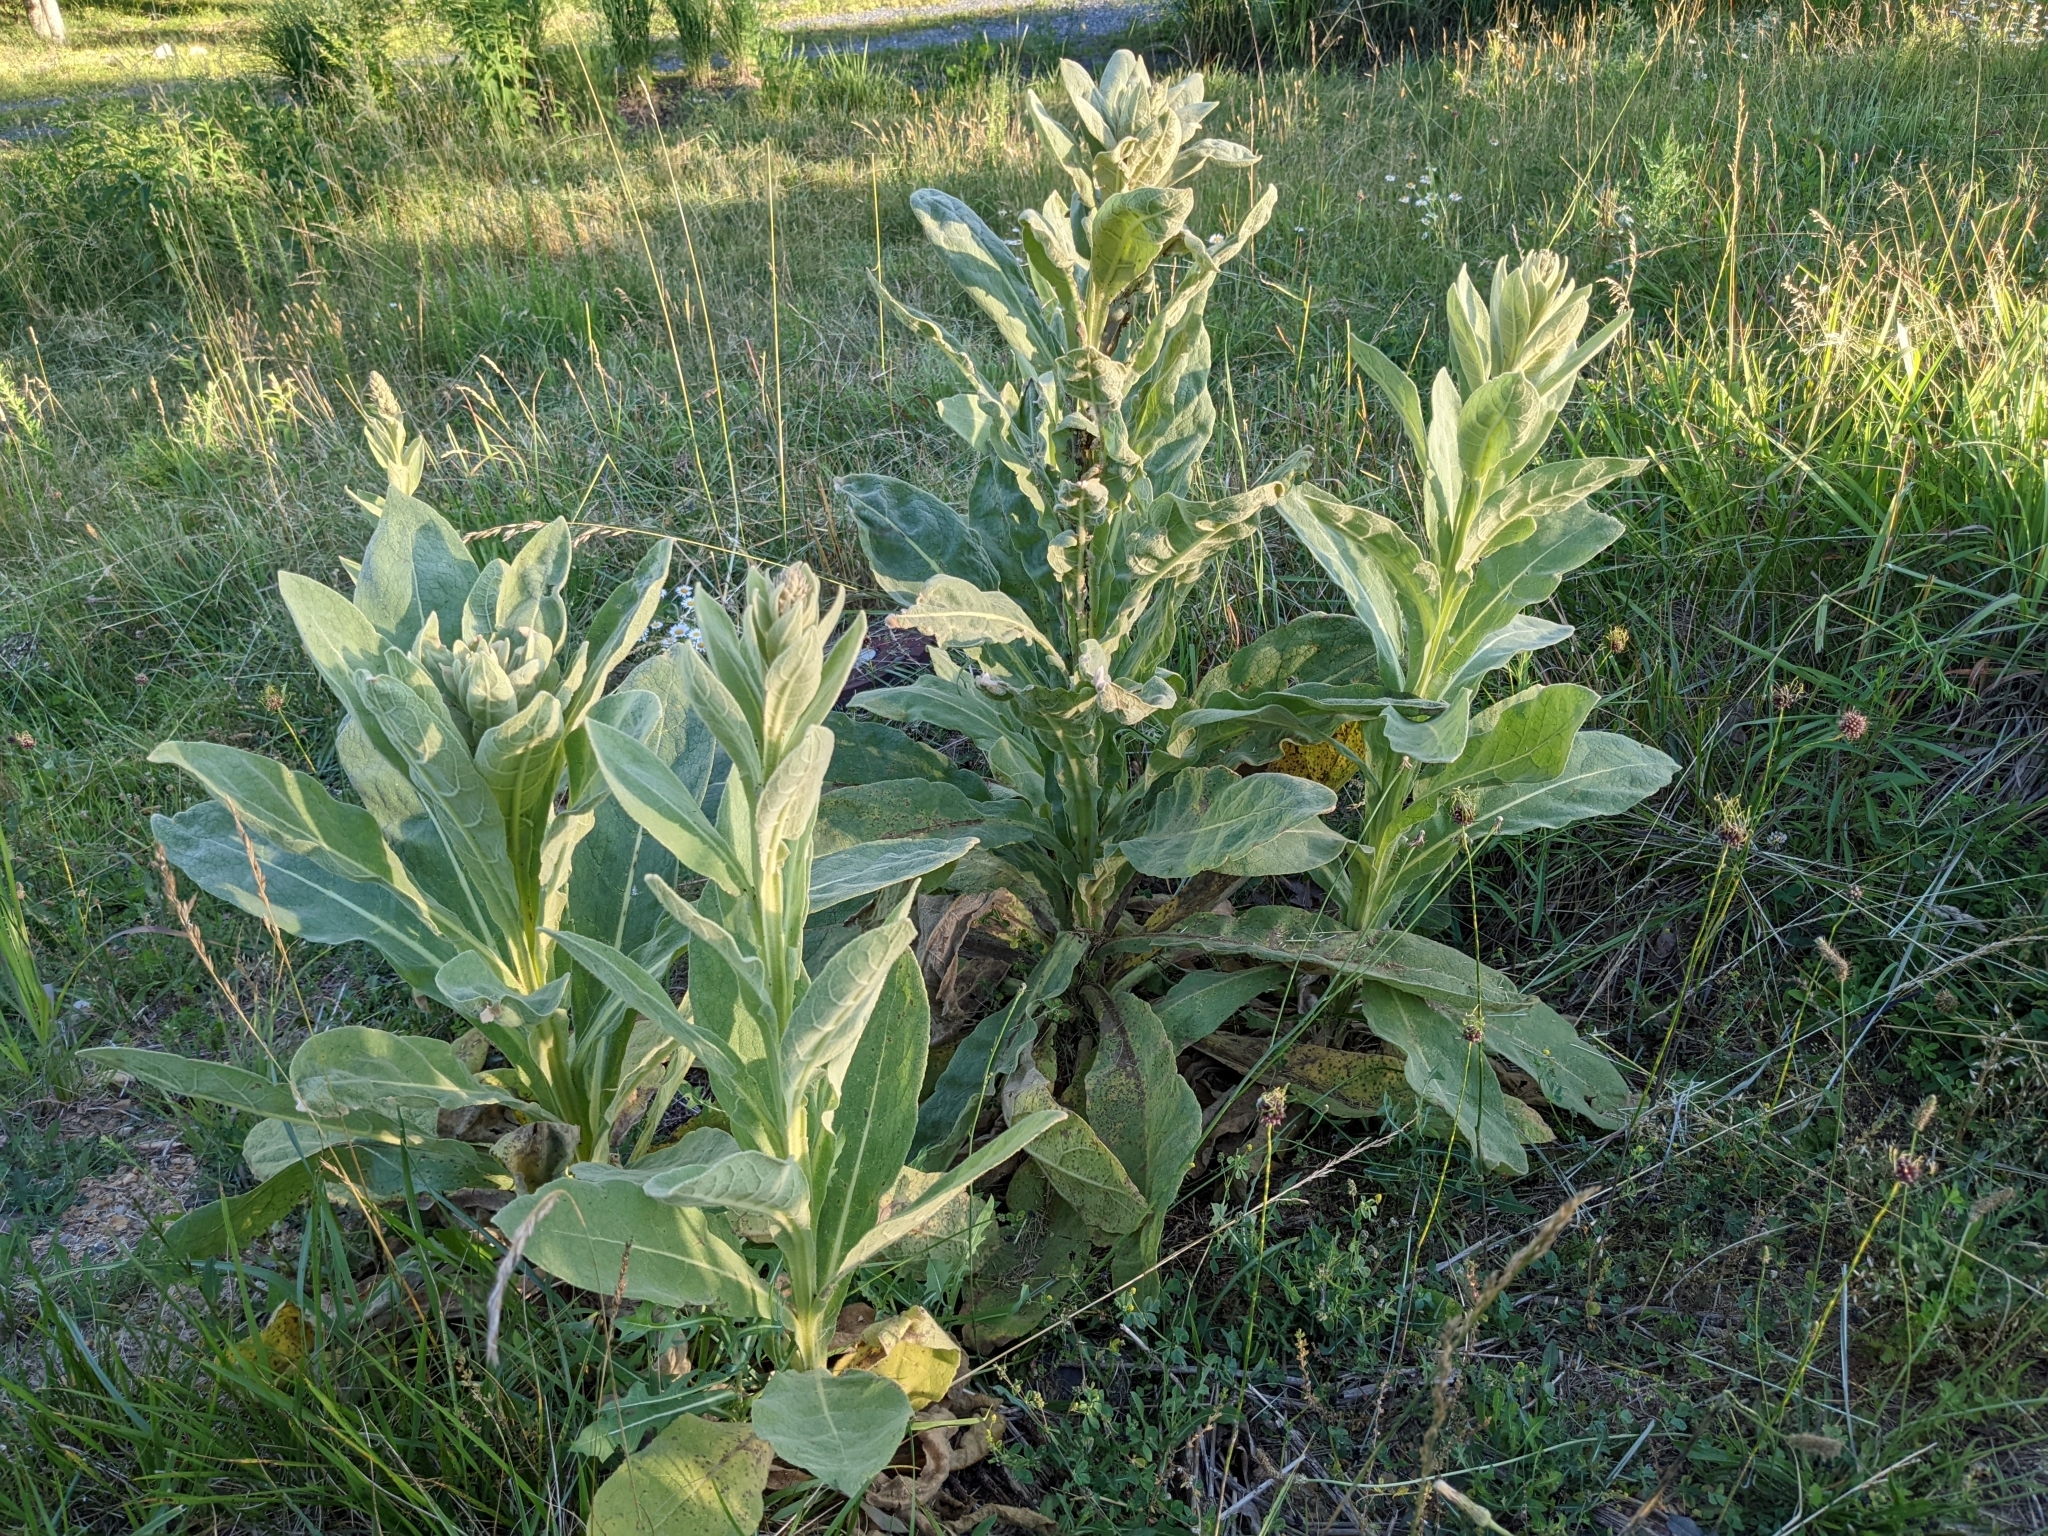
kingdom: Plantae
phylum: Tracheophyta
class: Magnoliopsida
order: Lamiales
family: Scrophulariaceae
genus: Verbascum
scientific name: Verbascum thapsus
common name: Common mullein
